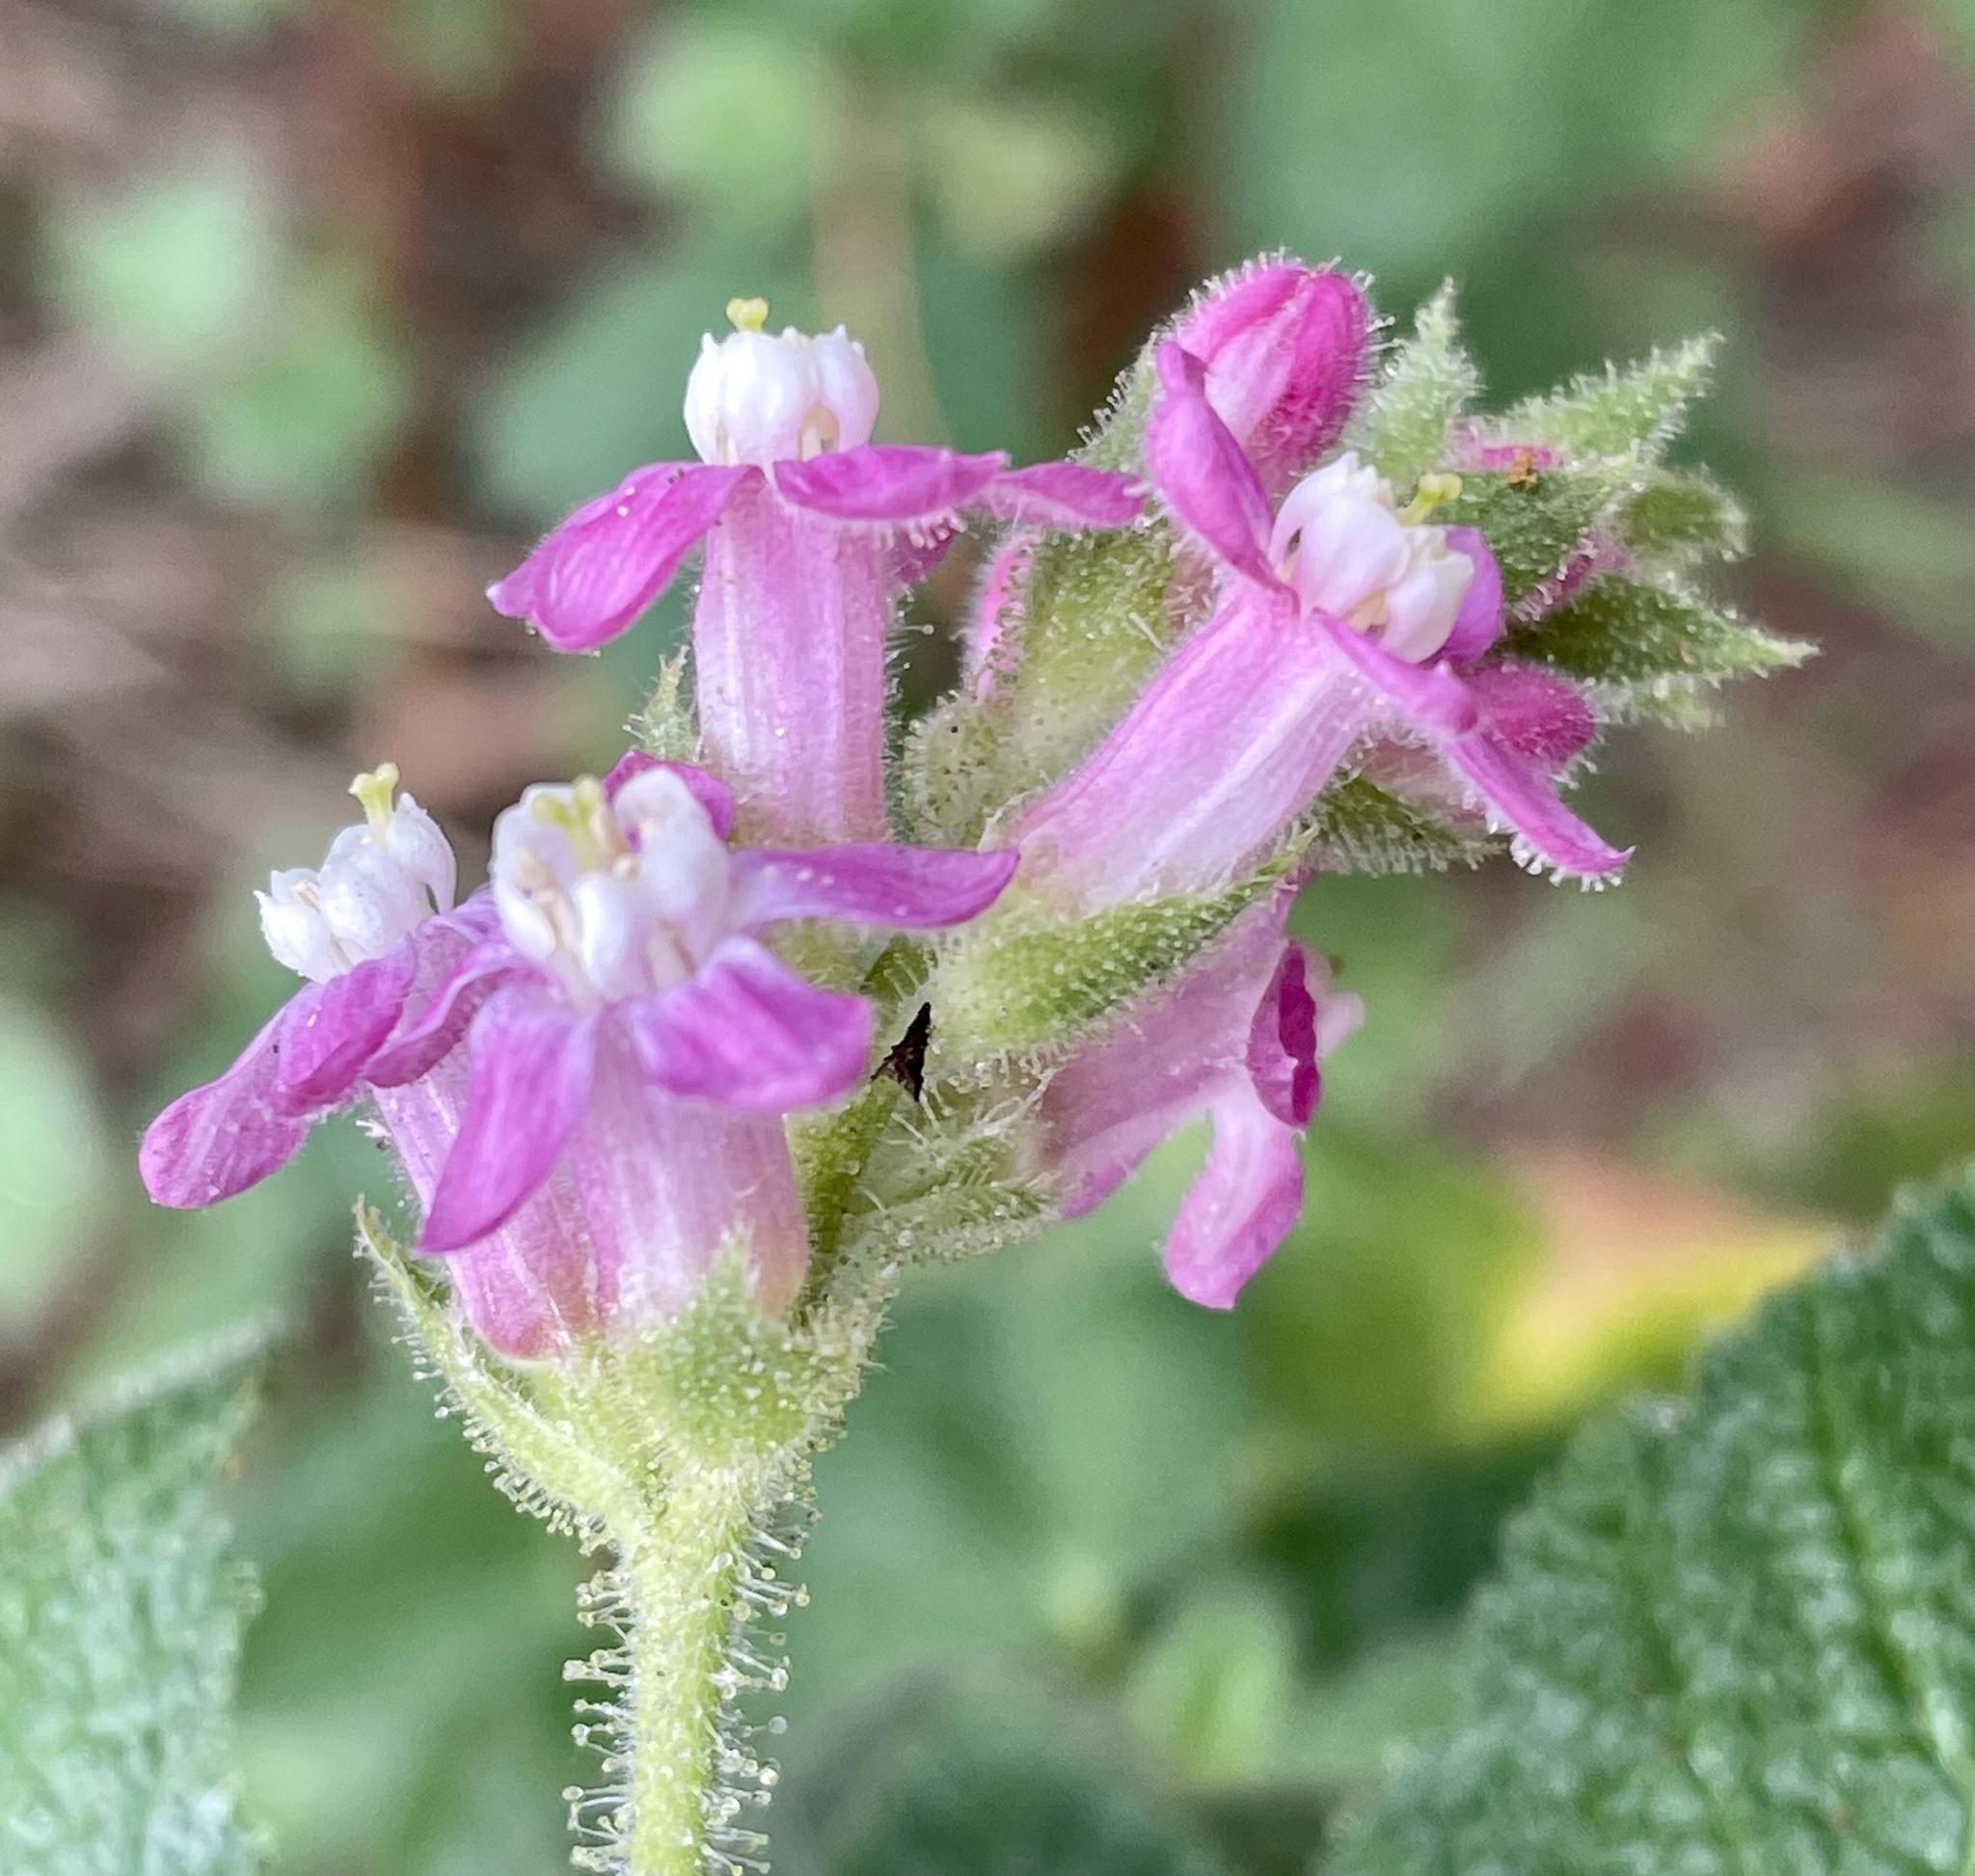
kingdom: Plantae
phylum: Tracheophyta
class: Magnoliopsida
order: Saxifragales
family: Grossulariaceae
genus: Ribes
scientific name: Ribes malvaceum
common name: Chaparral currant
